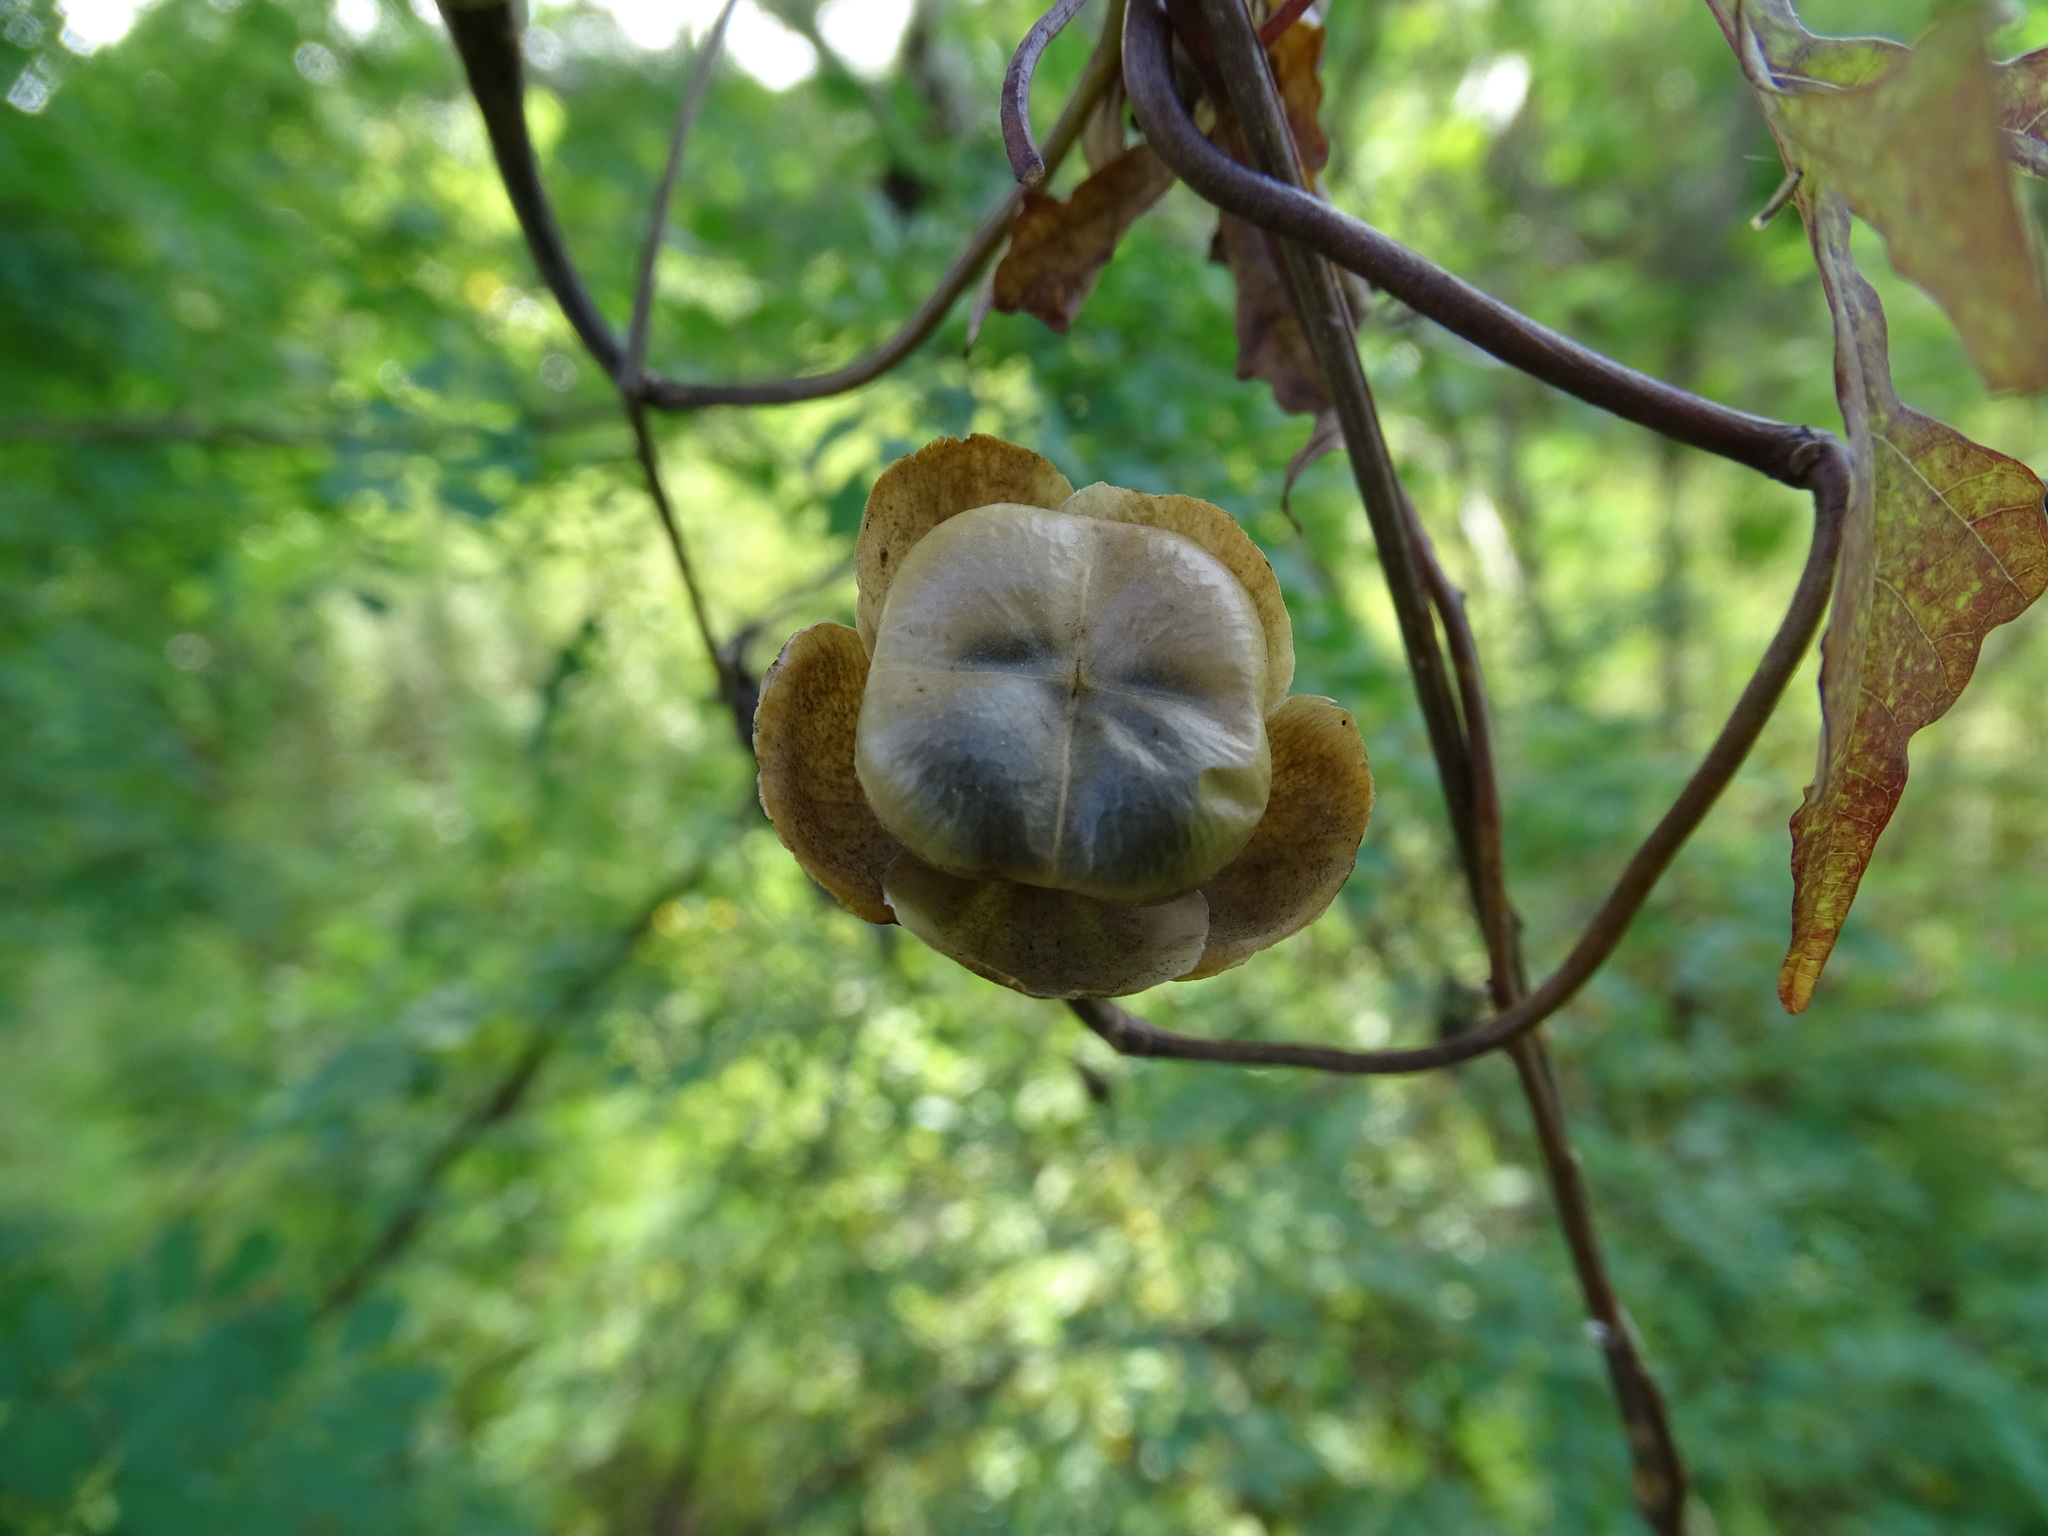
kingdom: Plantae
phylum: Tracheophyta
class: Magnoliopsida
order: Solanales
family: Convolvulaceae
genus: Operculina
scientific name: Operculina pinnatifida
